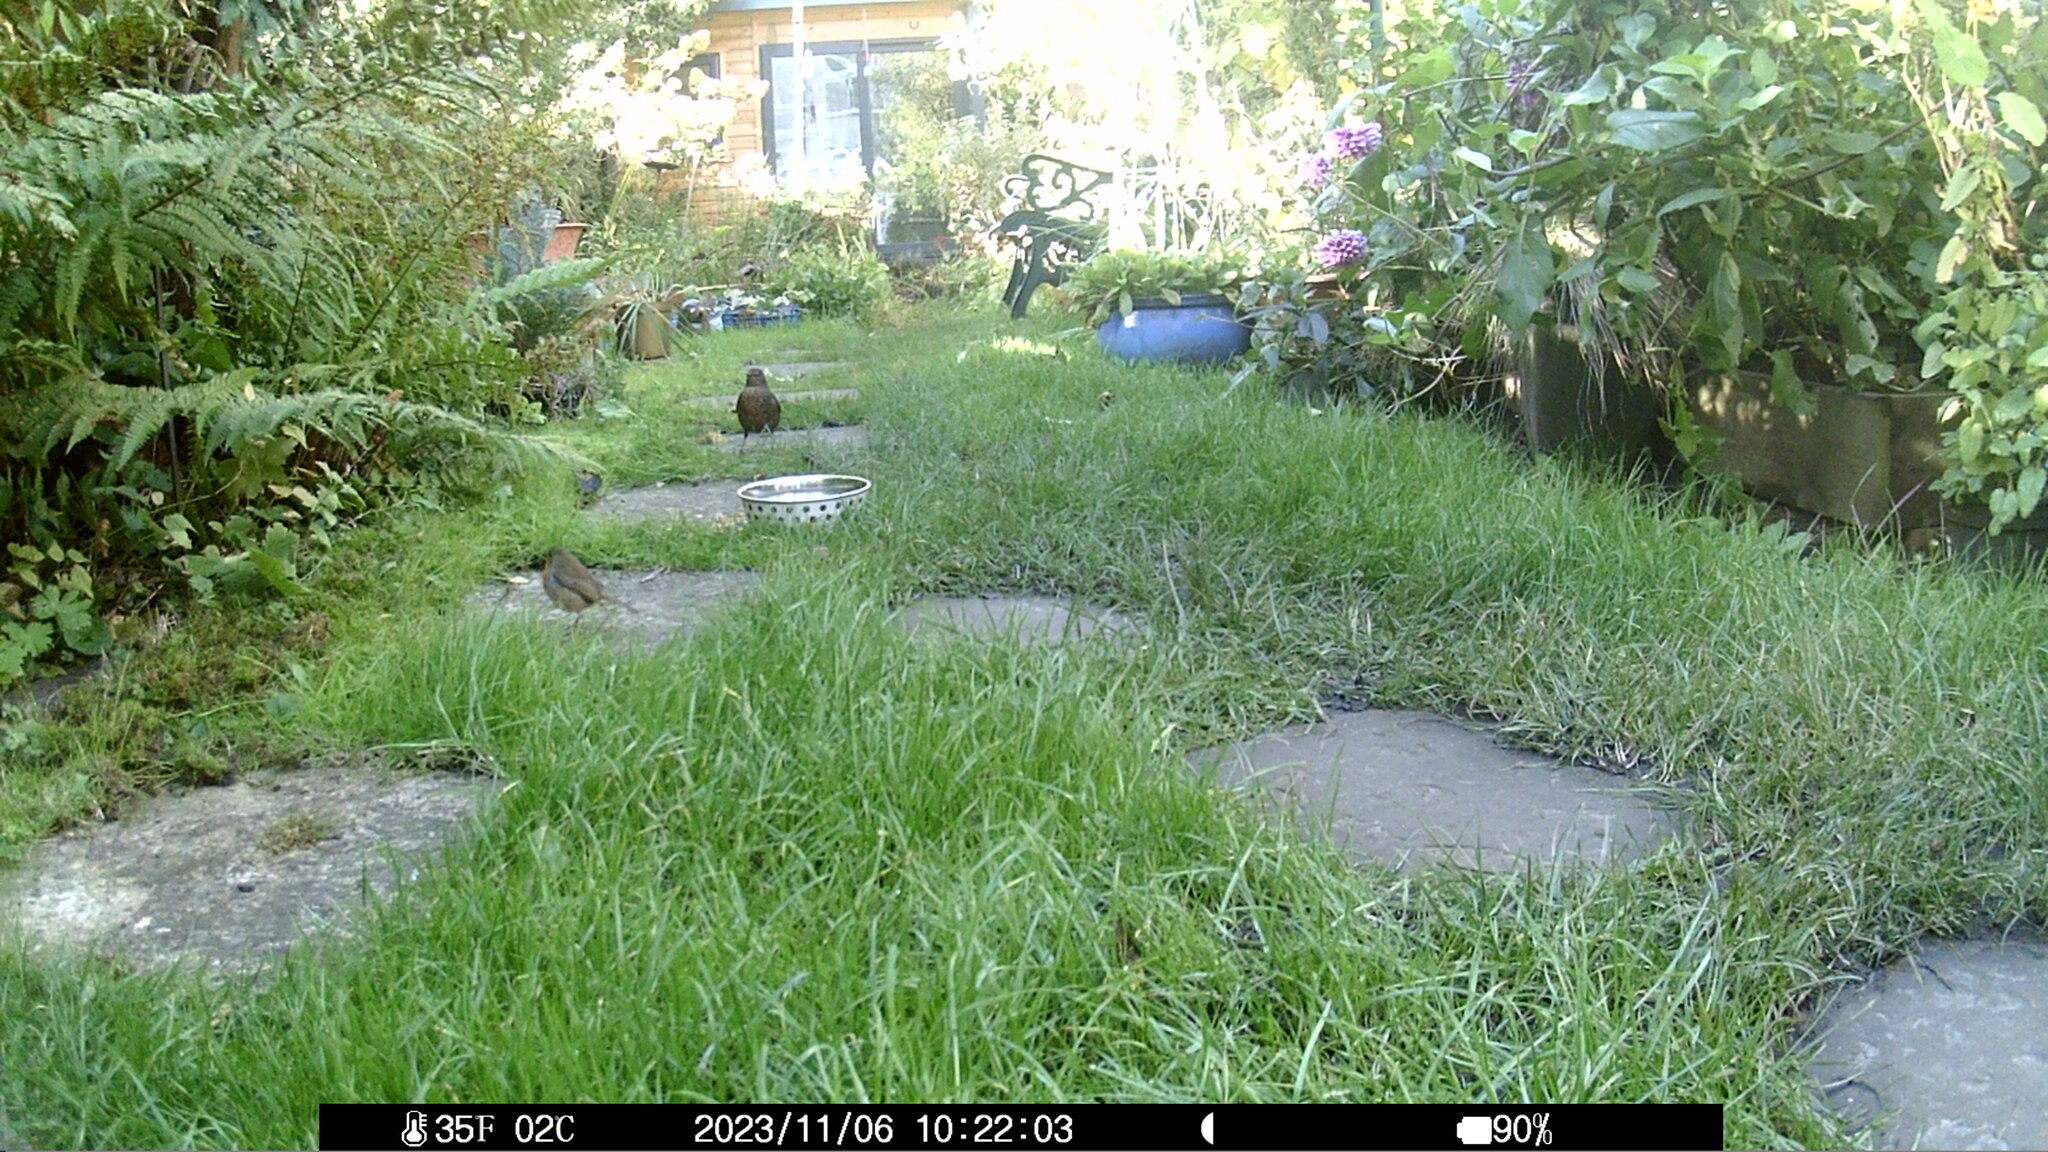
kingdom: Animalia
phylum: Chordata
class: Aves
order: Passeriformes
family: Muscicapidae
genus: Erithacus
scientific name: Erithacus rubecula
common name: European robin
